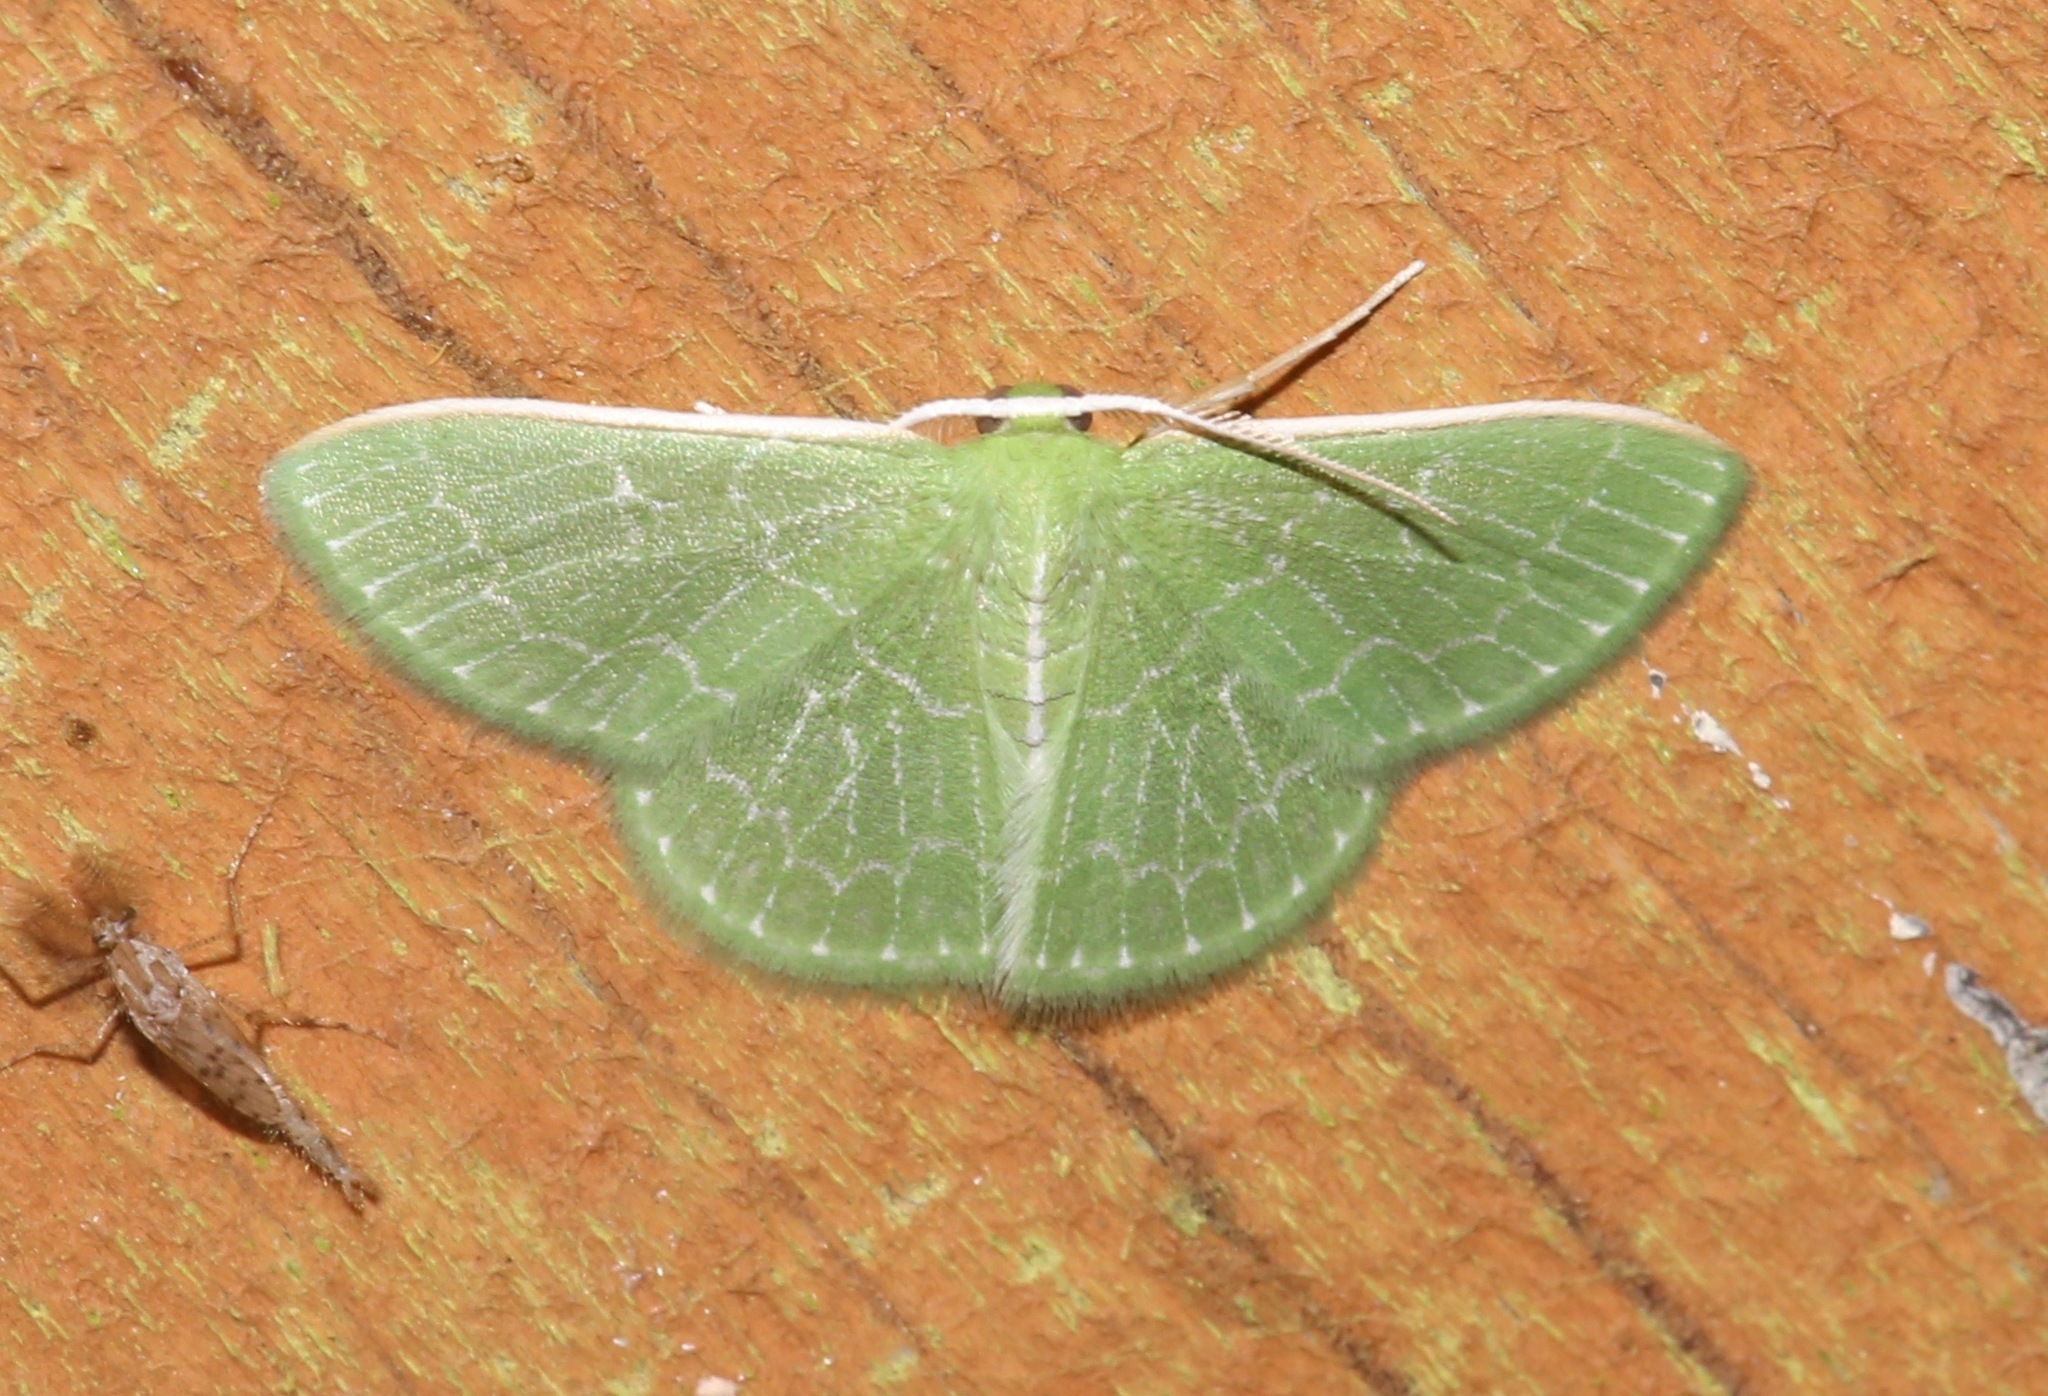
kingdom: Animalia
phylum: Arthropoda
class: Insecta
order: Lepidoptera
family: Geometridae
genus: Synchlora
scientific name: Synchlora frondaria
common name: Southern emerald
